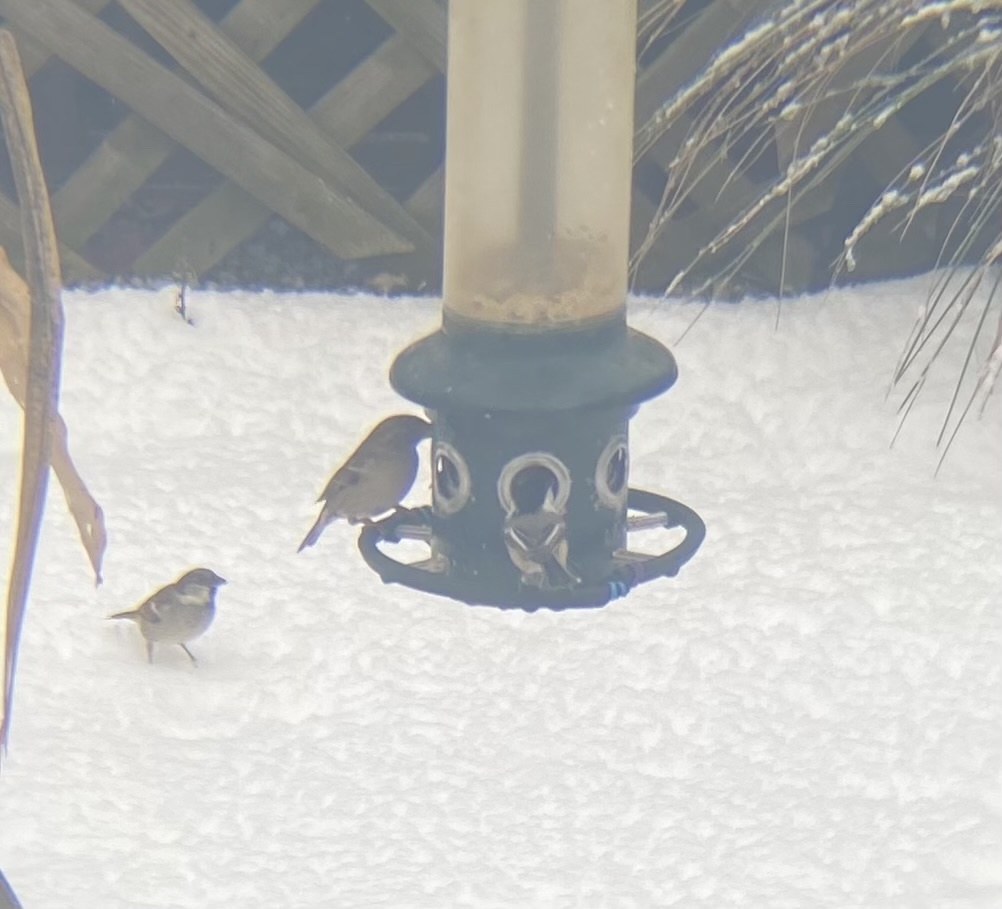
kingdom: Animalia
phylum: Chordata
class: Aves
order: Passeriformes
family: Paridae
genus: Poecile
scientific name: Poecile atricapillus
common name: Black-capped chickadee
